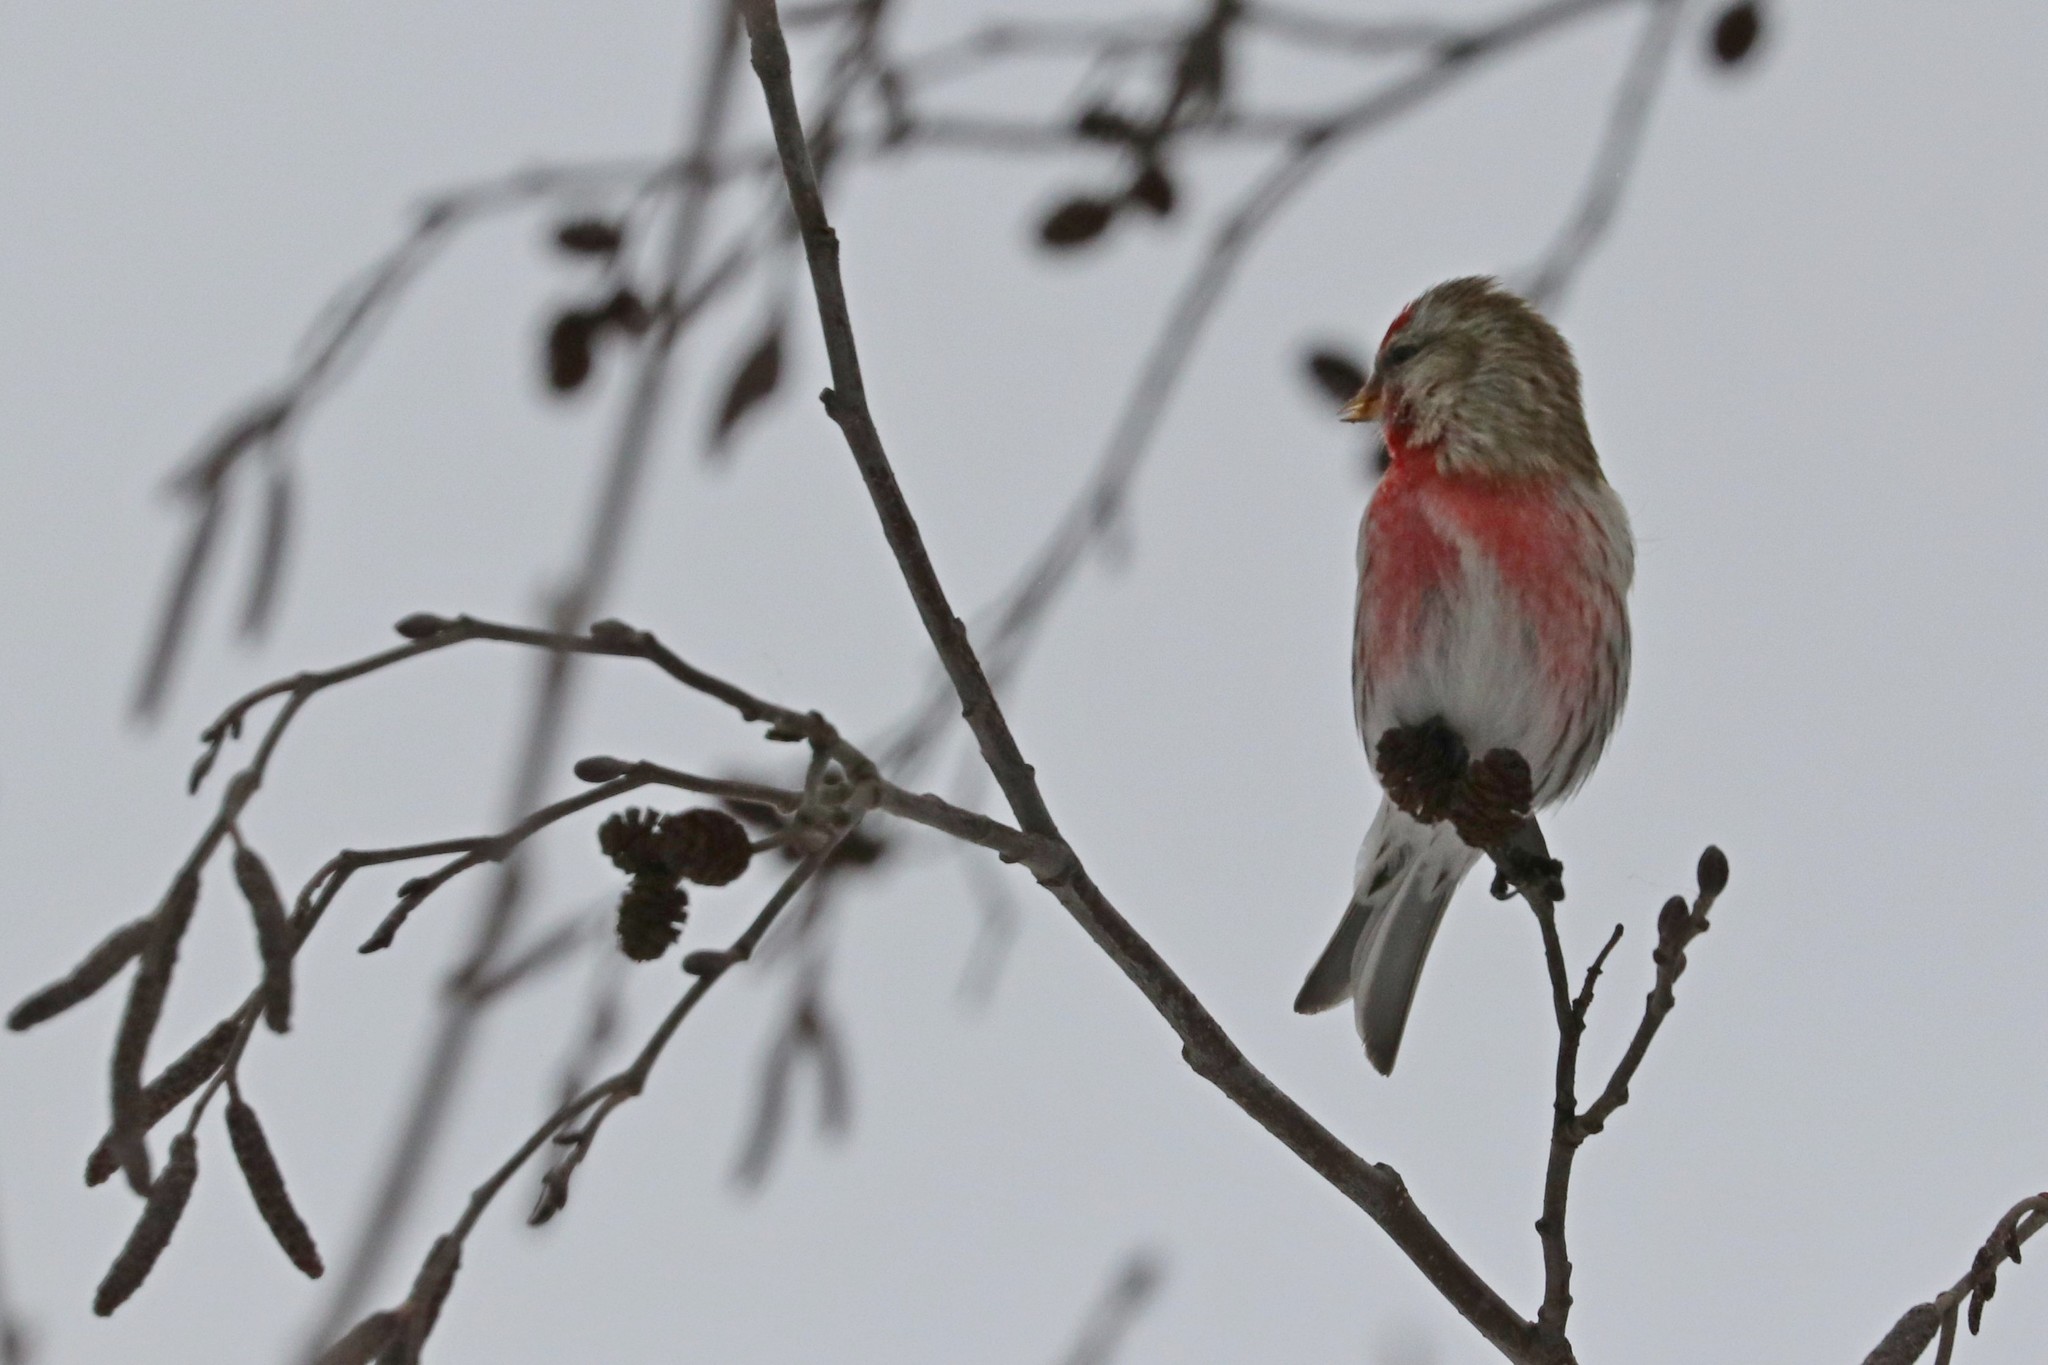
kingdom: Animalia
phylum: Chordata
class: Aves
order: Passeriformes
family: Fringillidae
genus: Acanthis
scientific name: Acanthis flammea
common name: Common redpoll
